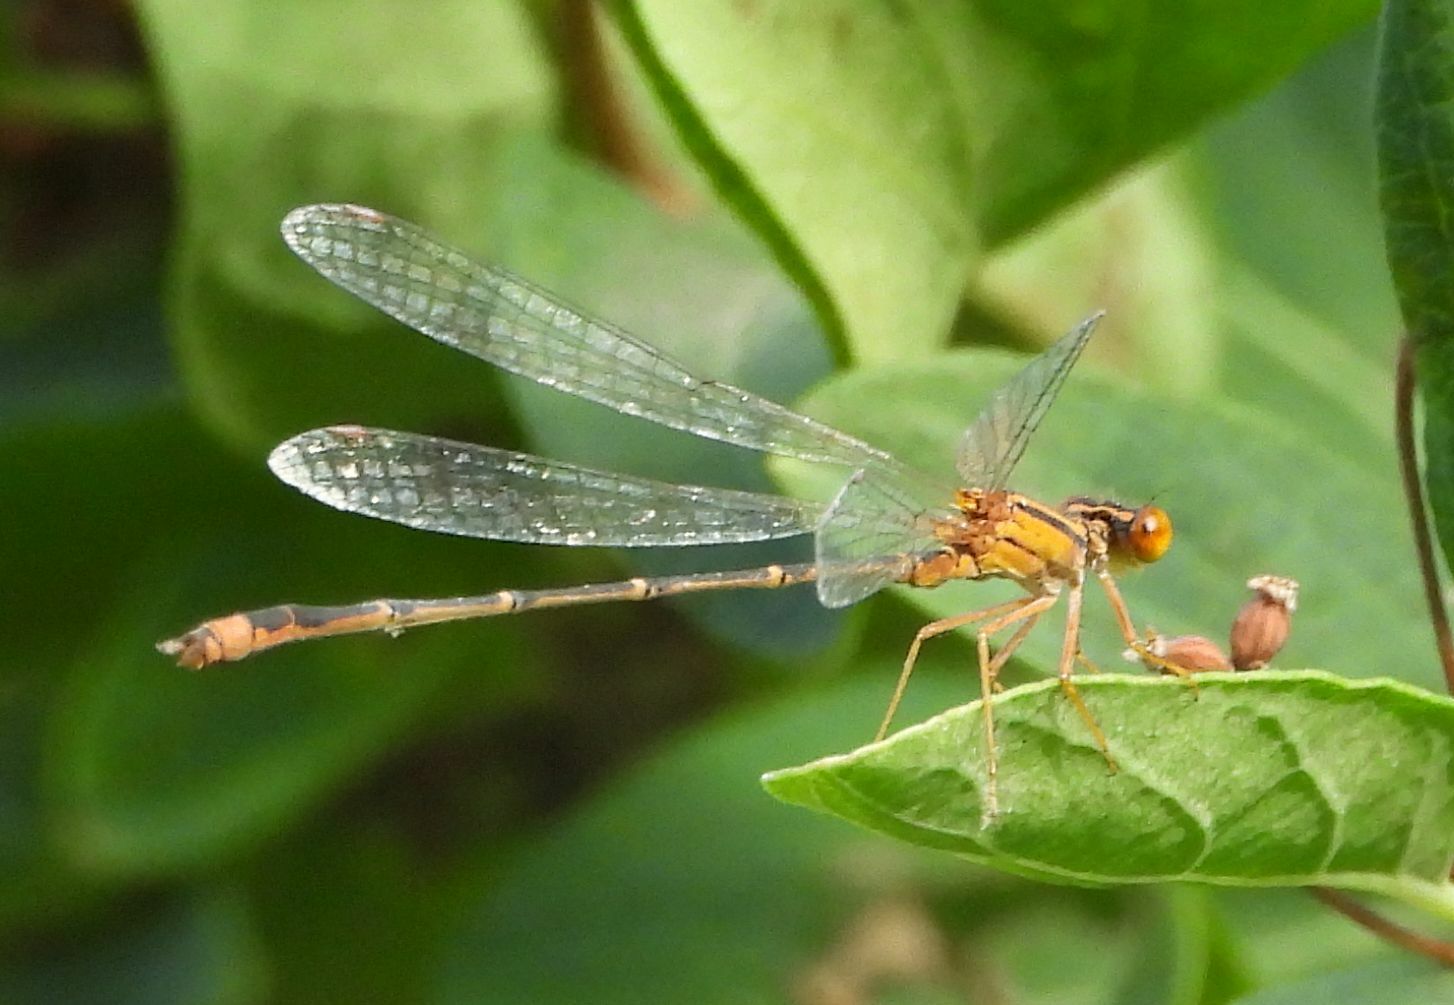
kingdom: Animalia
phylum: Arthropoda
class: Insecta
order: Odonata
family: Coenagrionidae
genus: Enallagma
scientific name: Enallagma signatum
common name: Orange bluet
